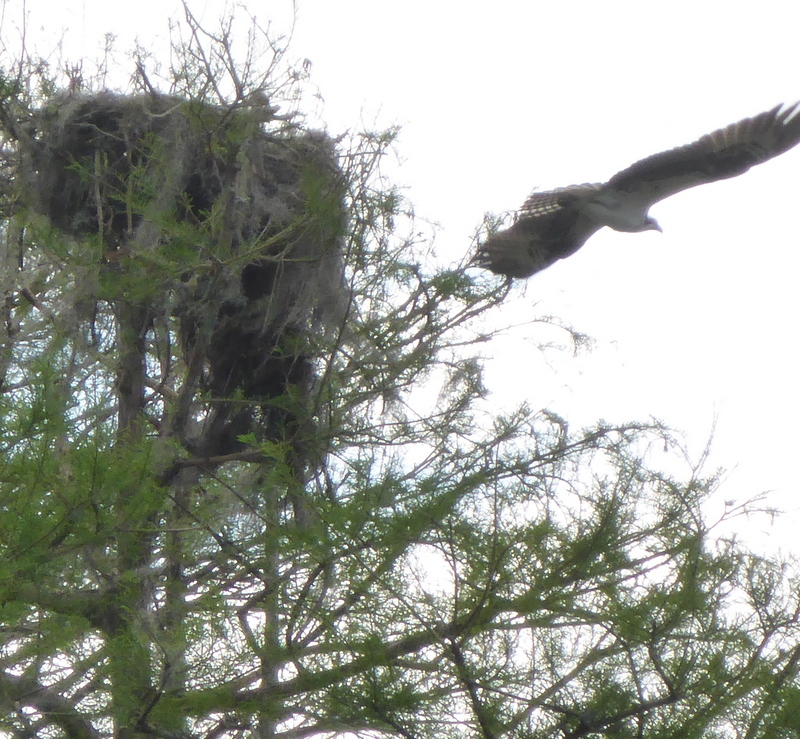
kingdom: Animalia
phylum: Chordata
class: Aves
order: Accipitriformes
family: Pandionidae
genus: Pandion
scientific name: Pandion haliaetus
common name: Osprey
